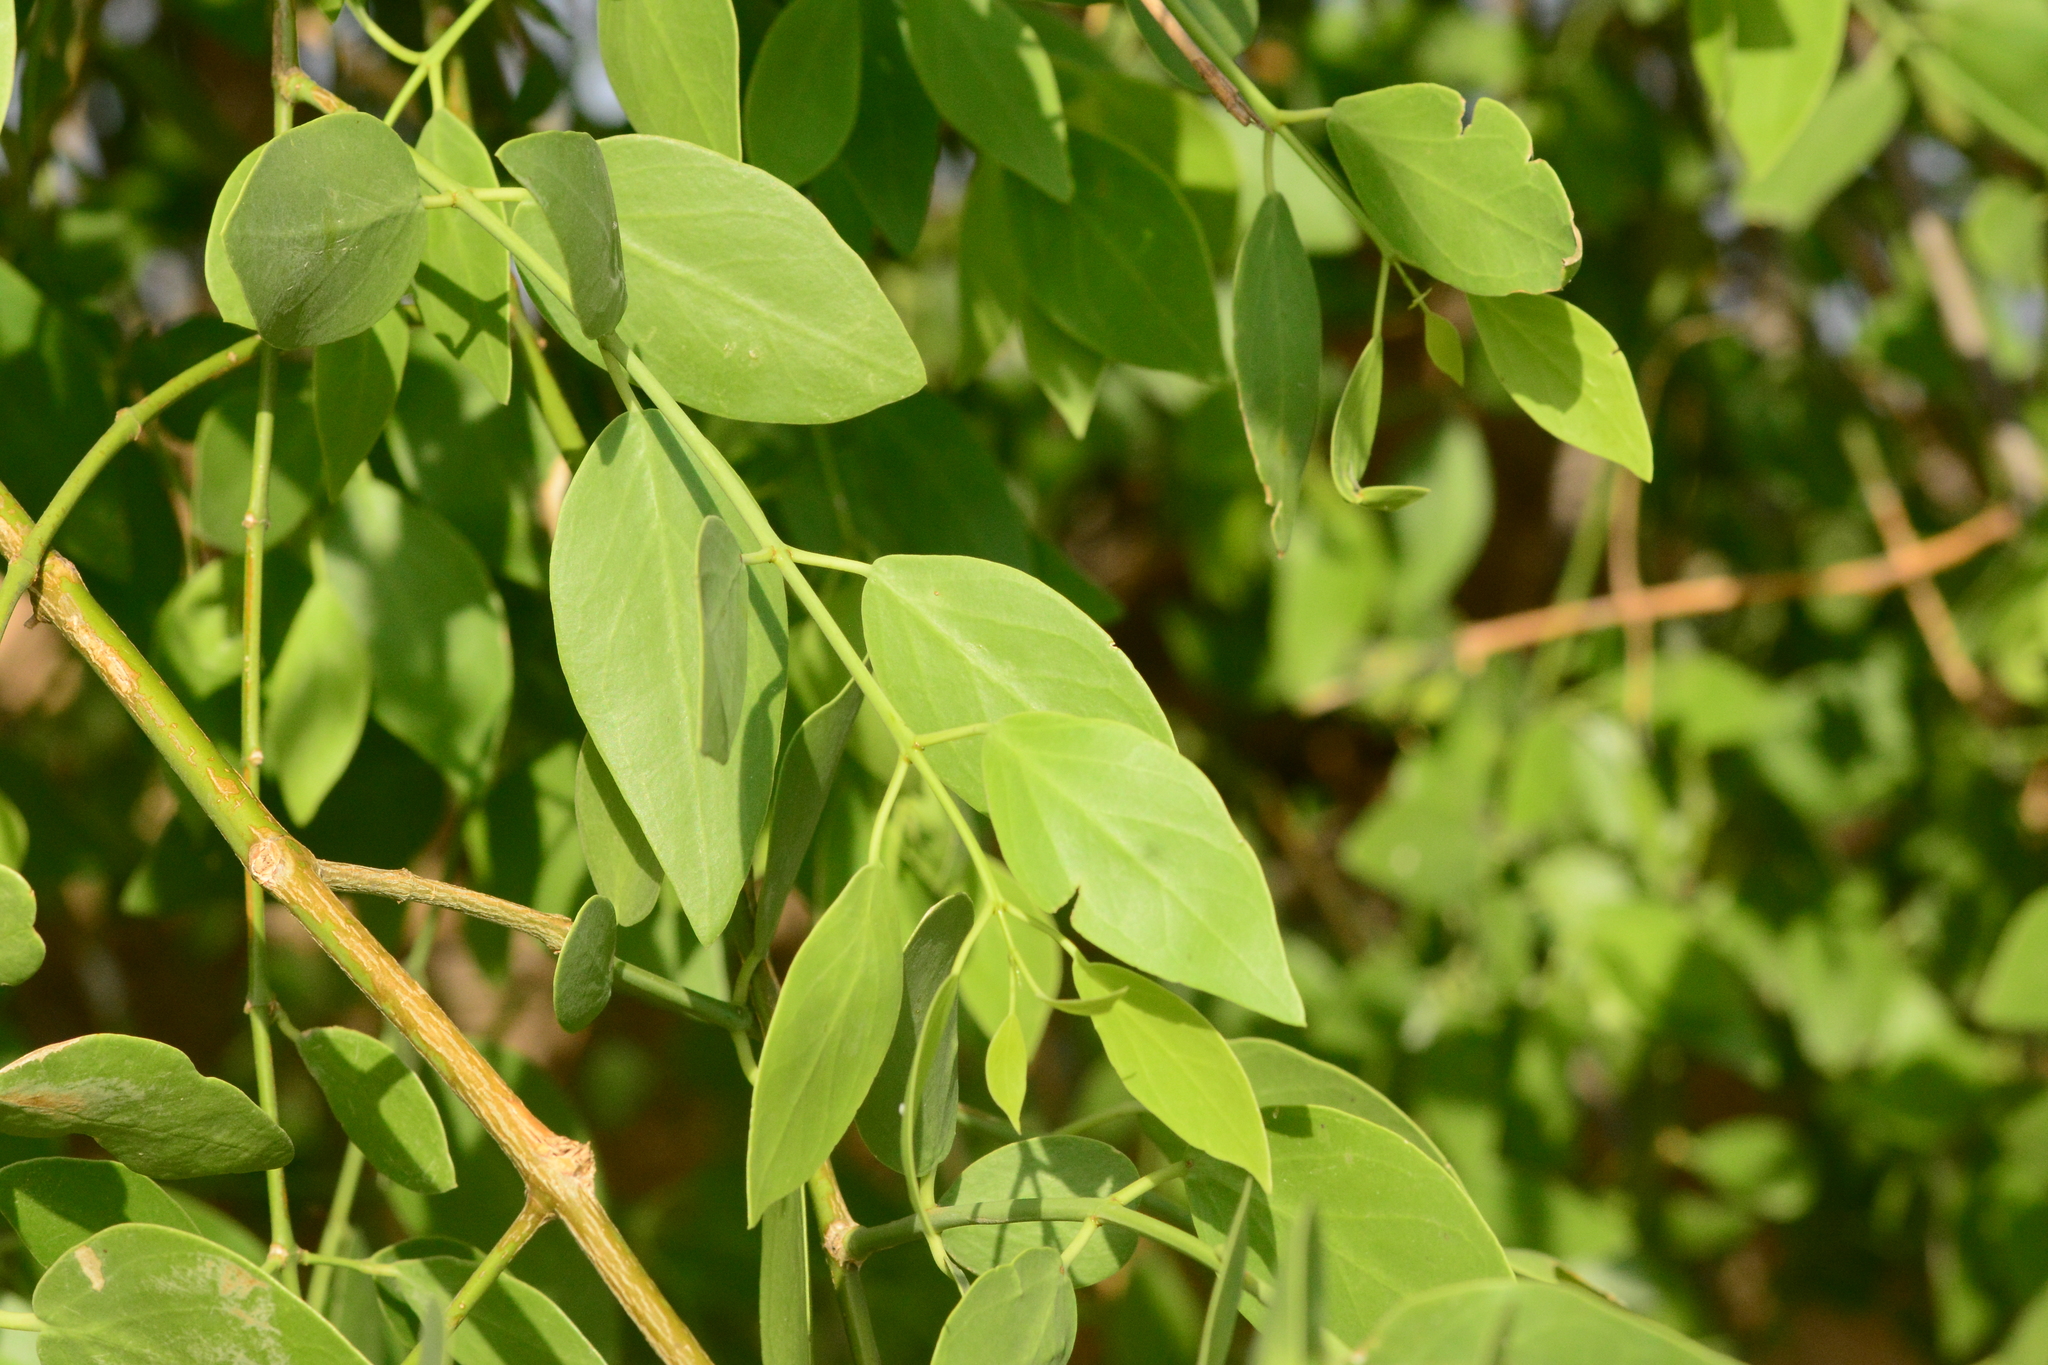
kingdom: Plantae
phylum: Tracheophyta
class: Magnoliopsida
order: Brassicales
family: Salvadoraceae
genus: Salvadora
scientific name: Salvadora persica
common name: Toothbrushtree
